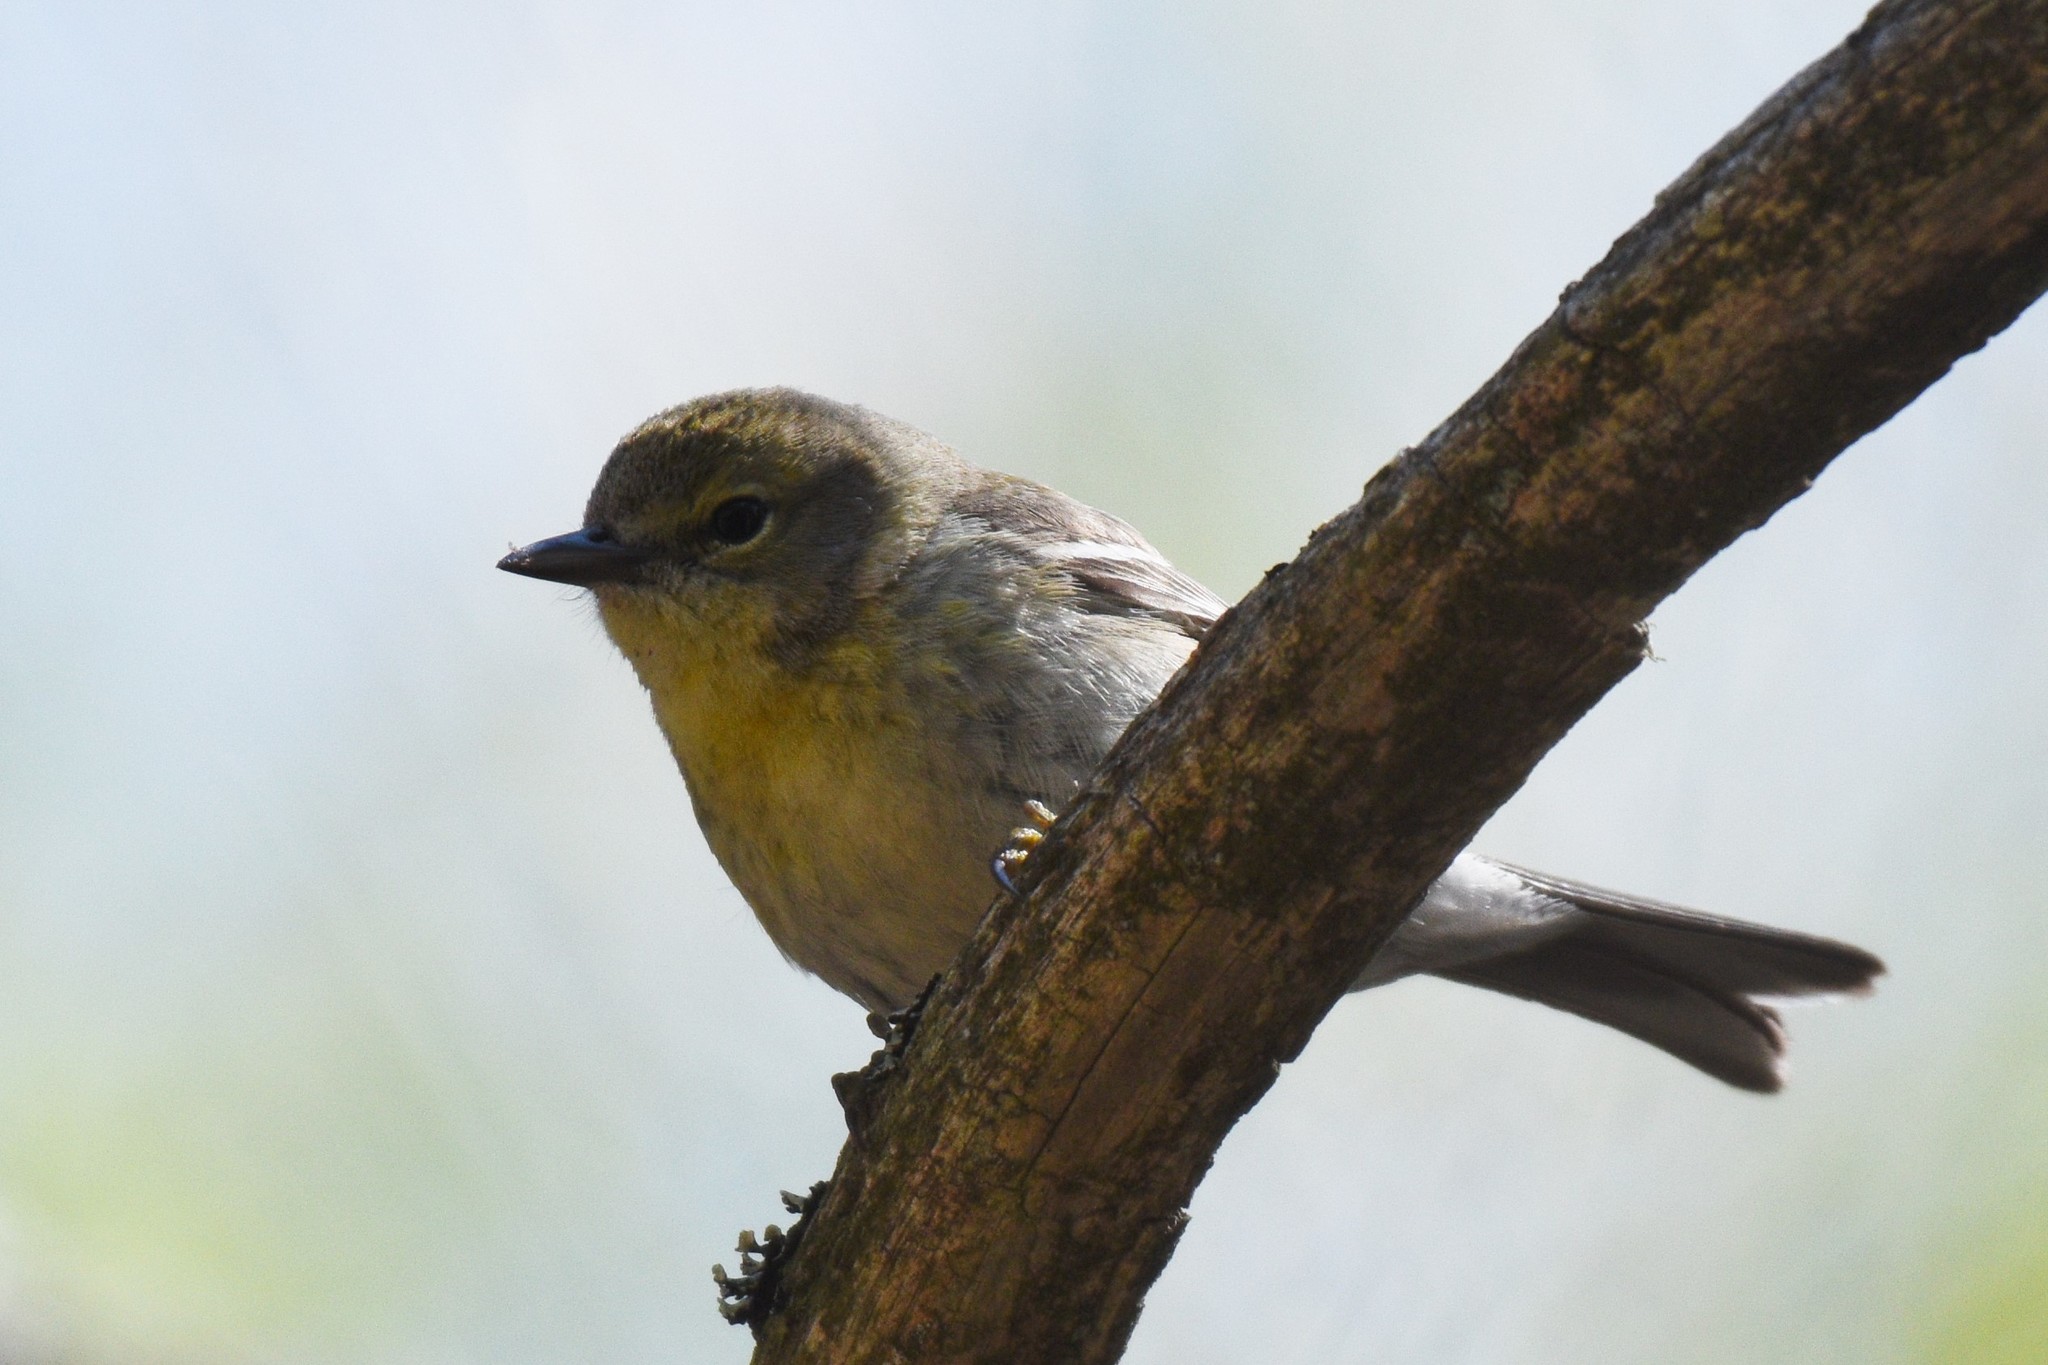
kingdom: Animalia
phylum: Chordata
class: Aves
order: Passeriformes
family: Parulidae
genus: Setophaga
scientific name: Setophaga pinus
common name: Pine warbler
